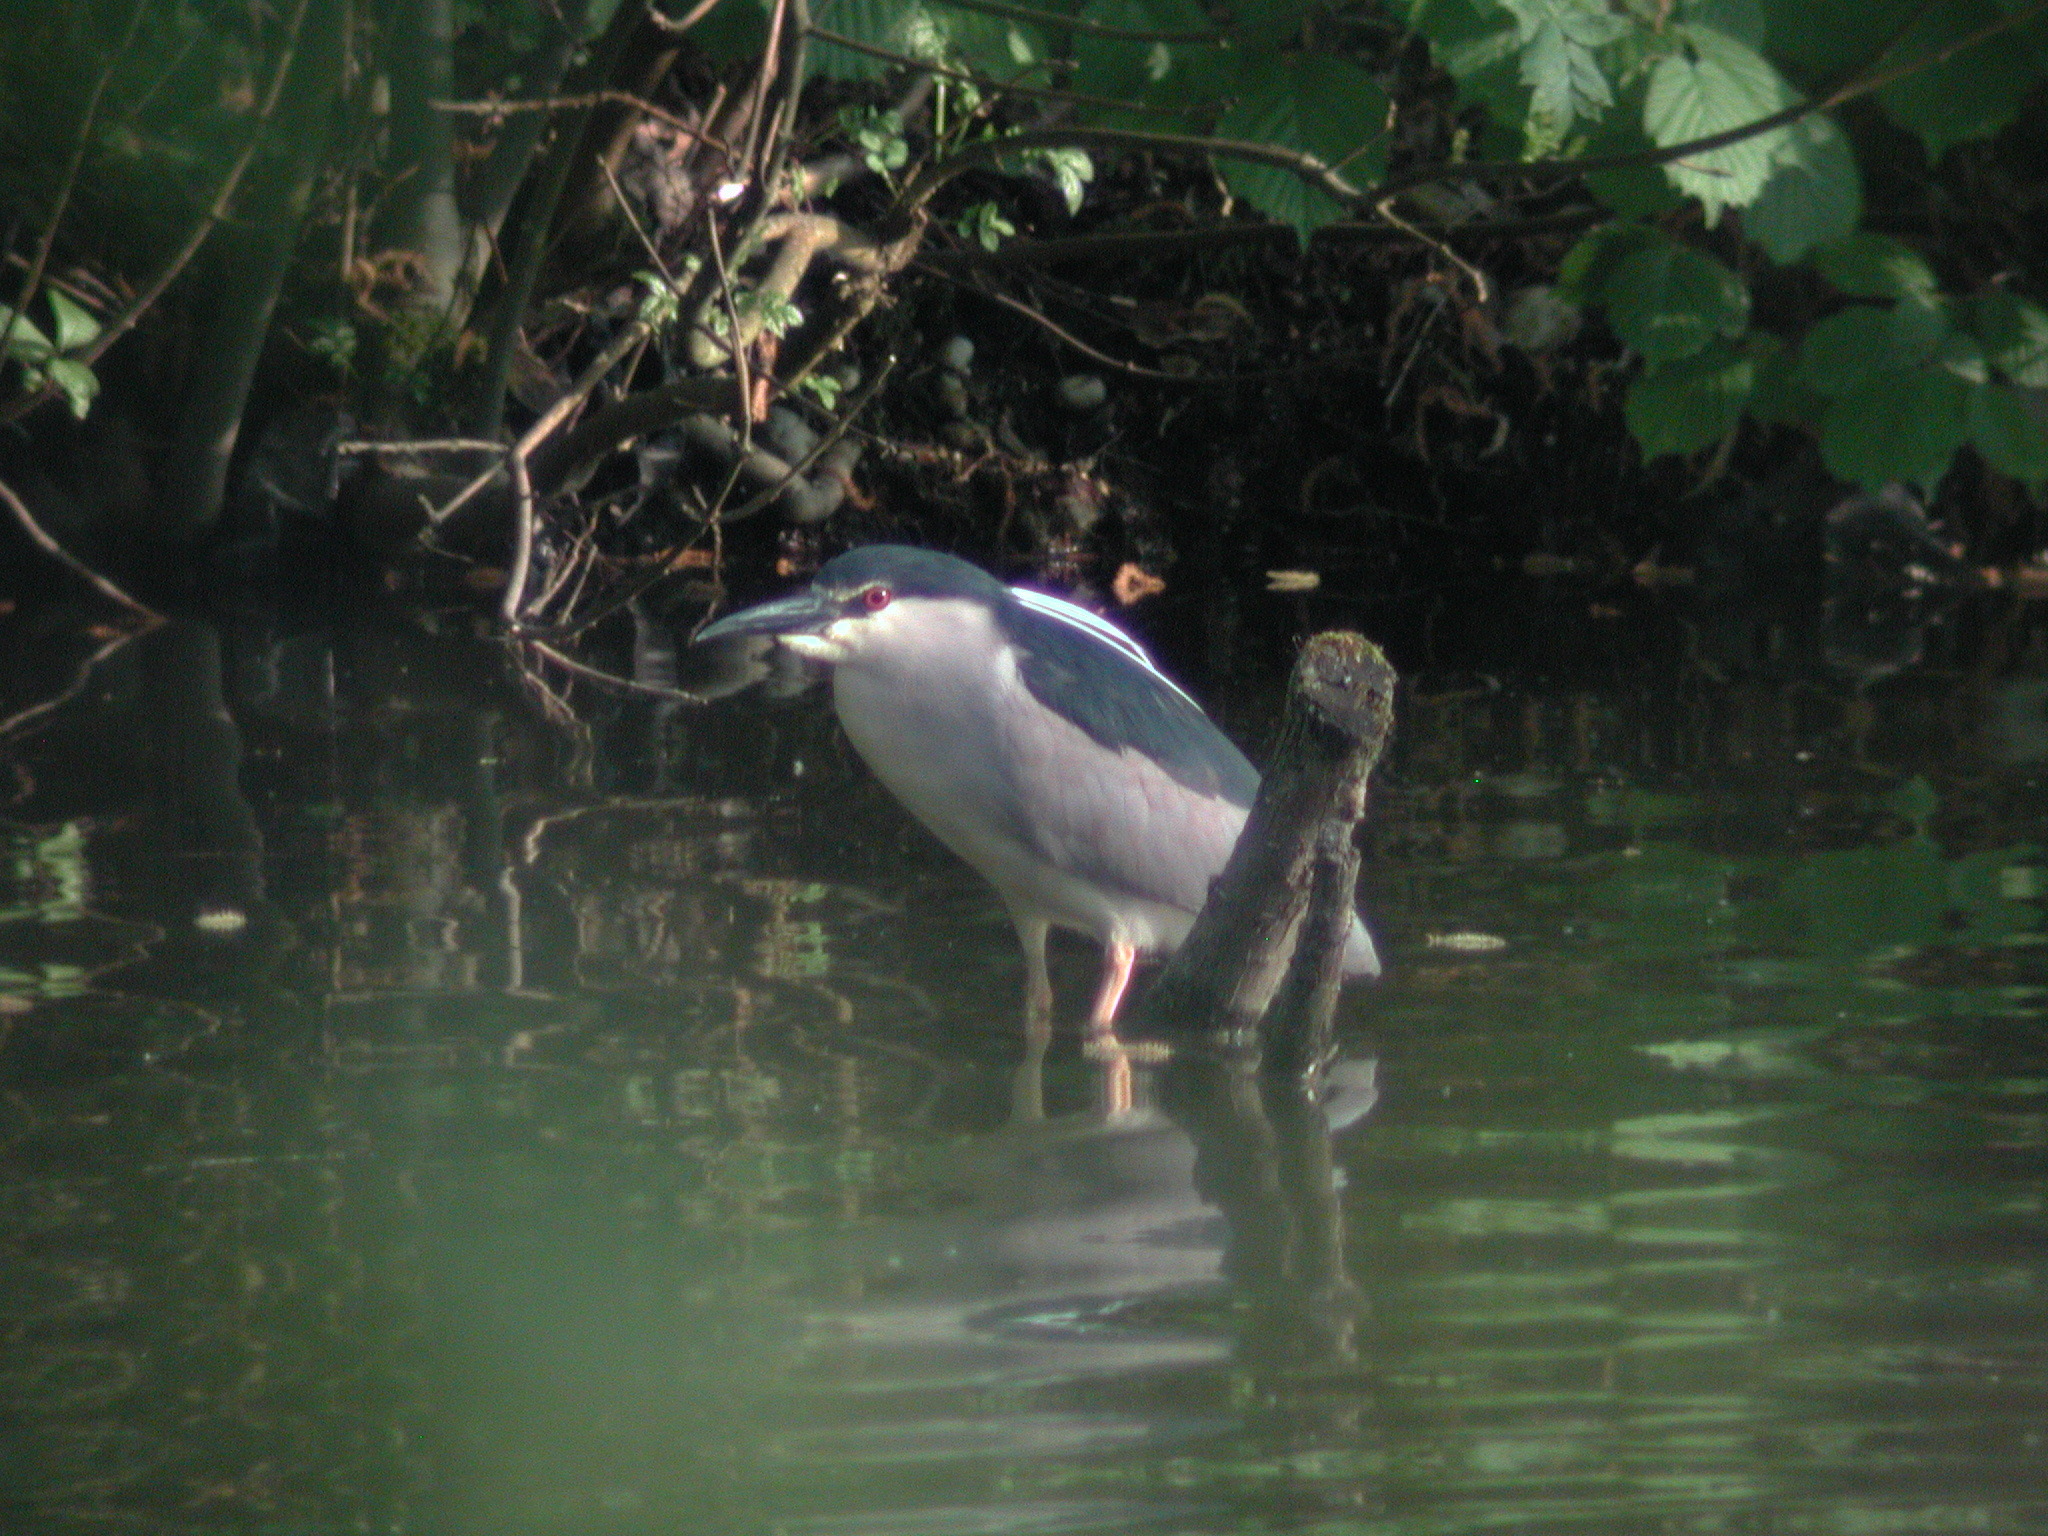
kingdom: Animalia
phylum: Chordata
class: Aves
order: Pelecaniformes
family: Ardeidae
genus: Nycticorax
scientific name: Nycticorax nycticorax
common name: Black-crowned night heron
